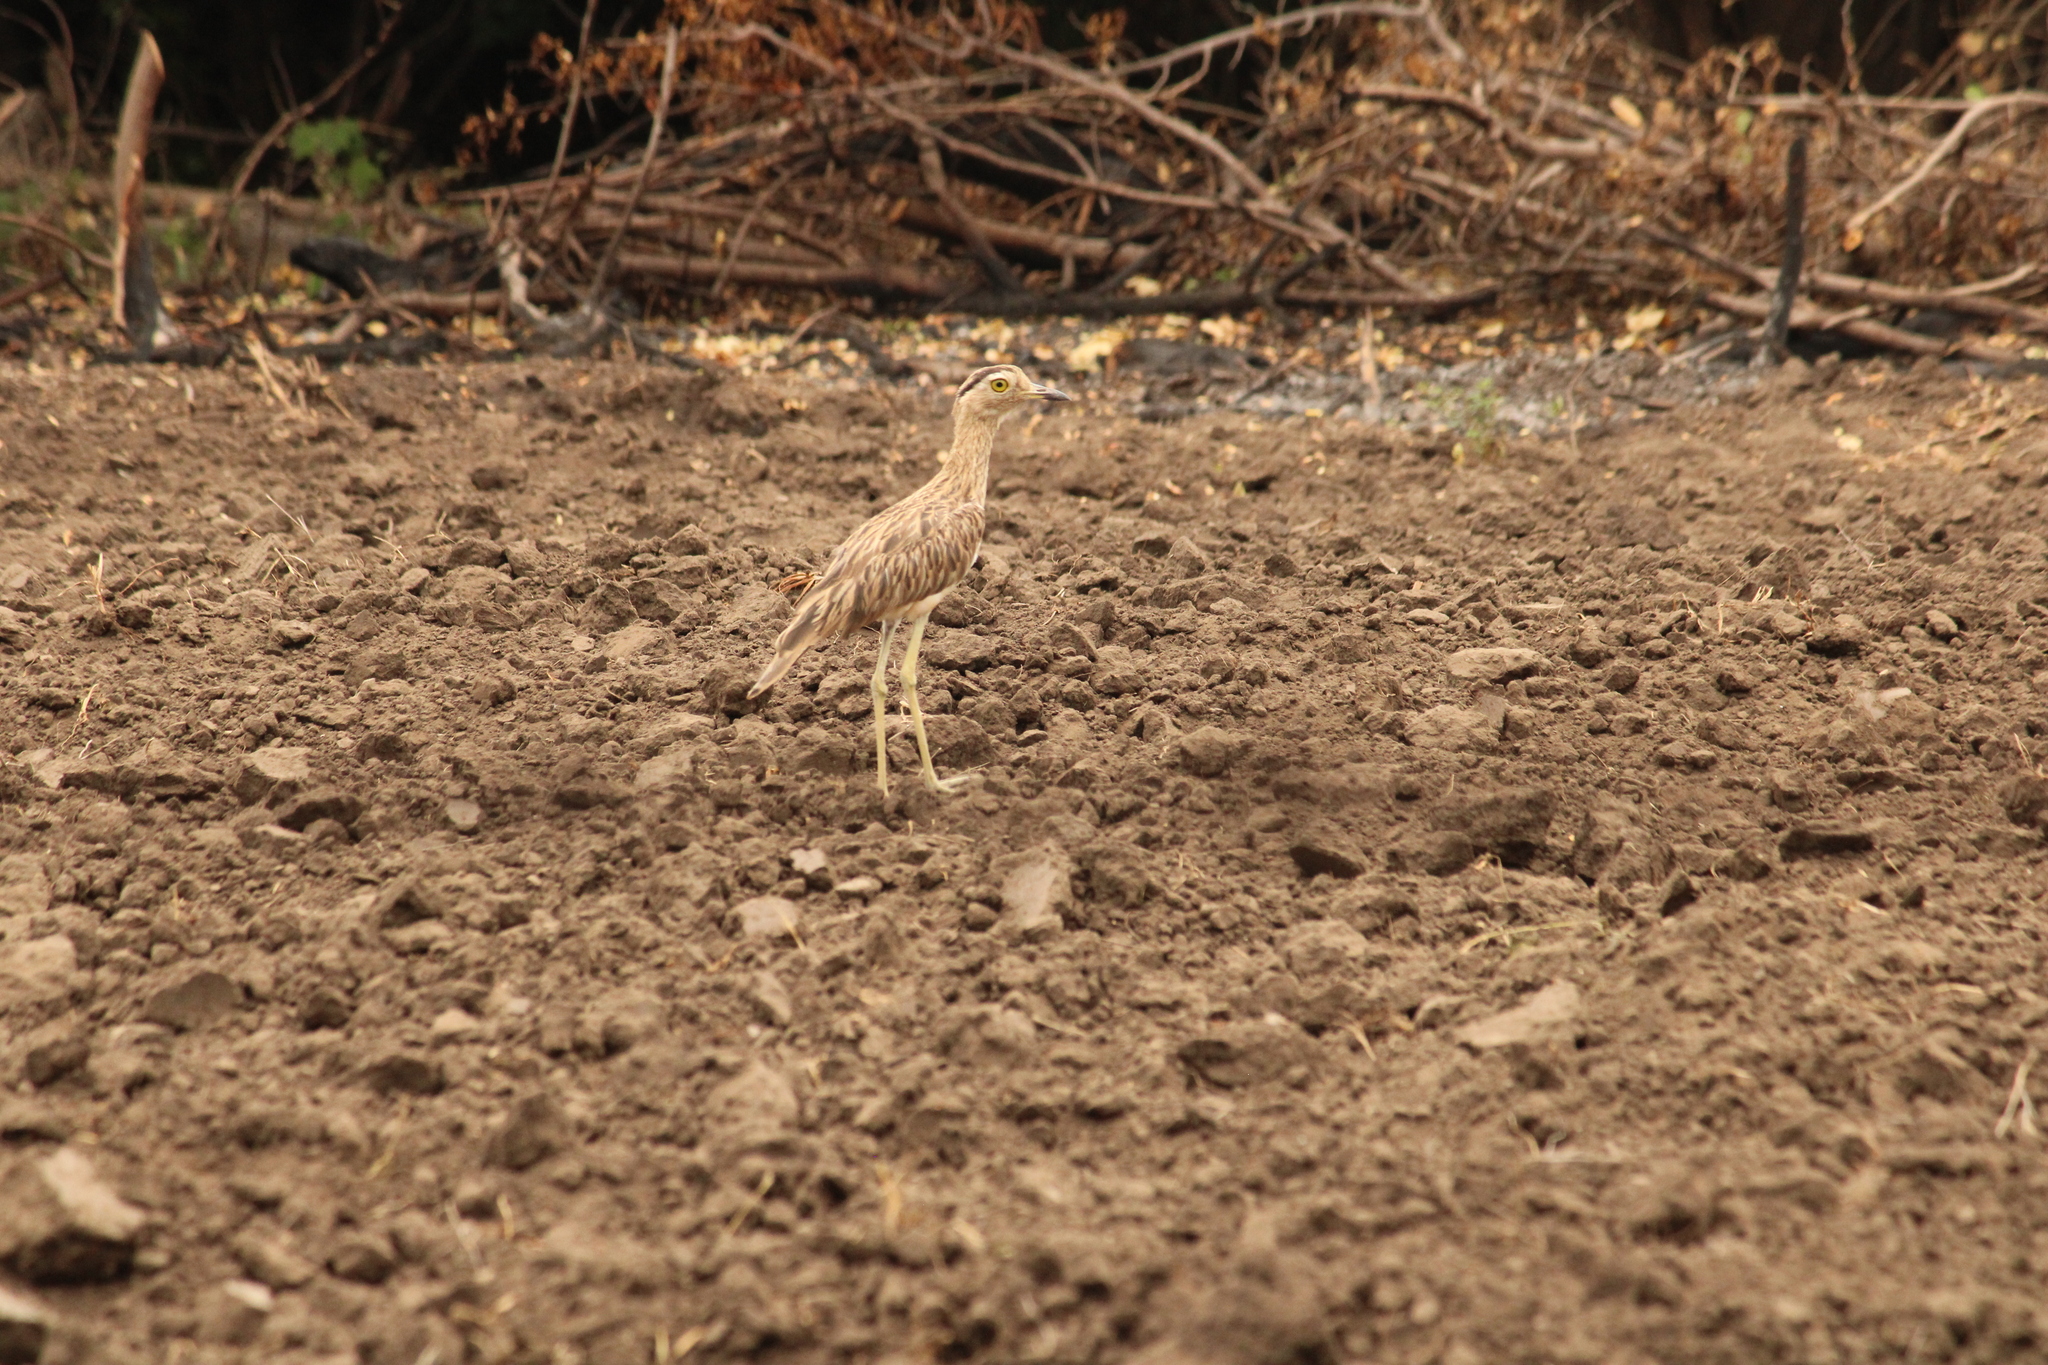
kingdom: Animalia
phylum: Chordata
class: Aves
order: Charadriiformes
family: Burhinidae
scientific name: Burhinidae
